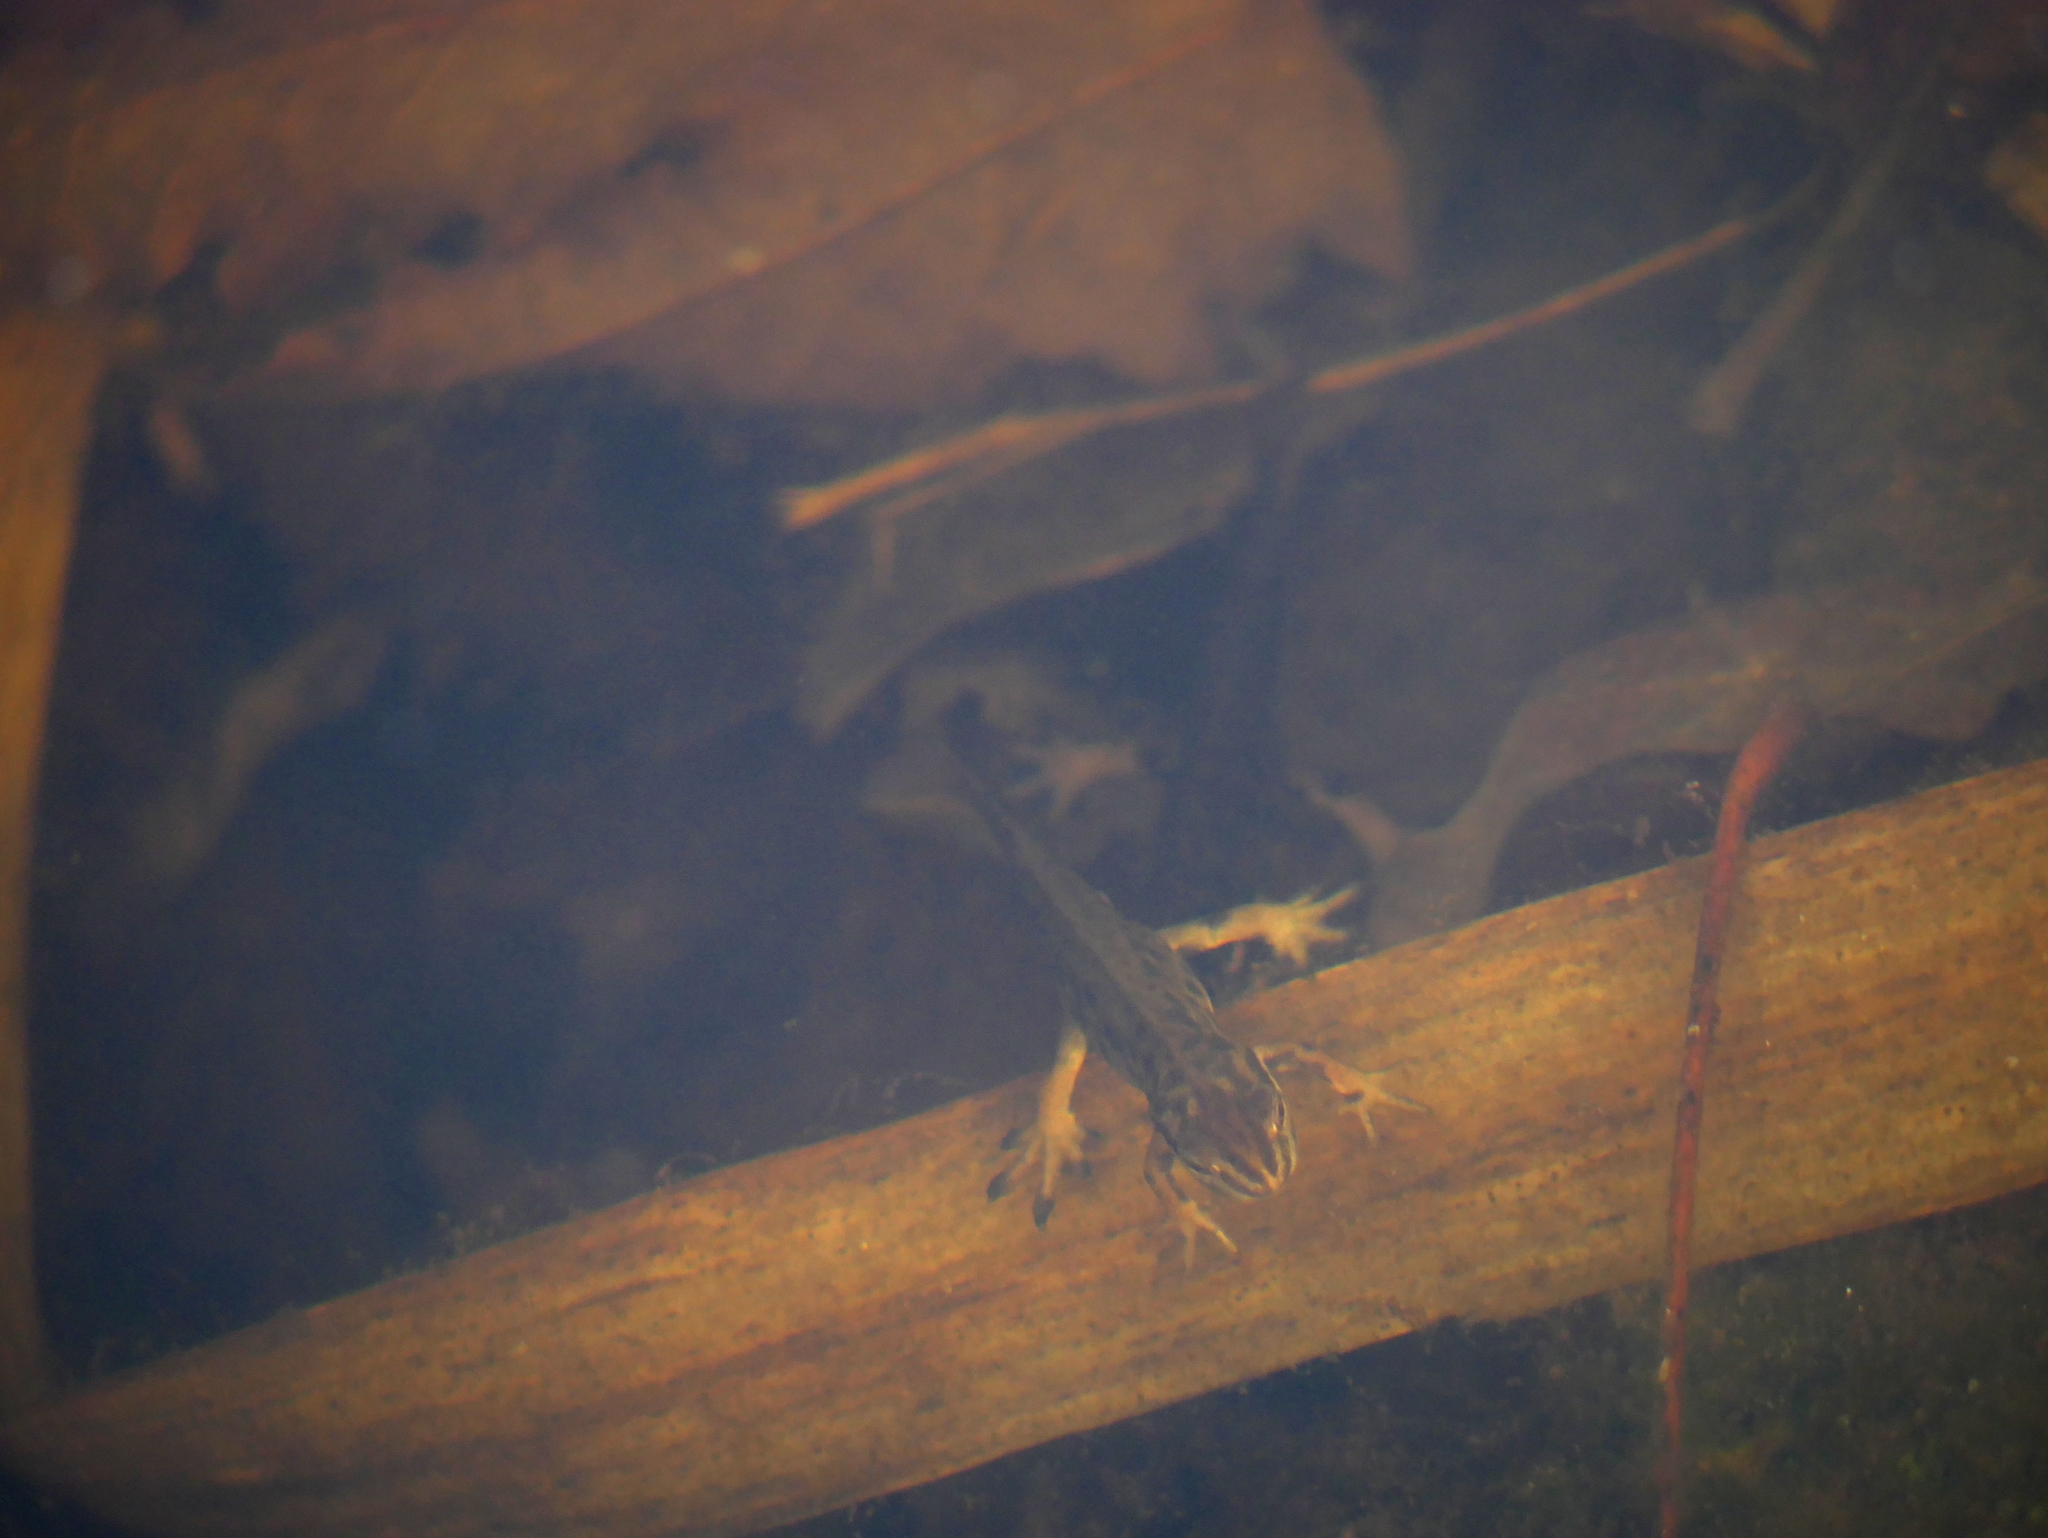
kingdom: Animalia
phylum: Chordata
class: Amphibia
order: Caudata
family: Salamandridae
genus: Lissotriton
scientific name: Lissotriton vulgaris
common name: Smooth newt
